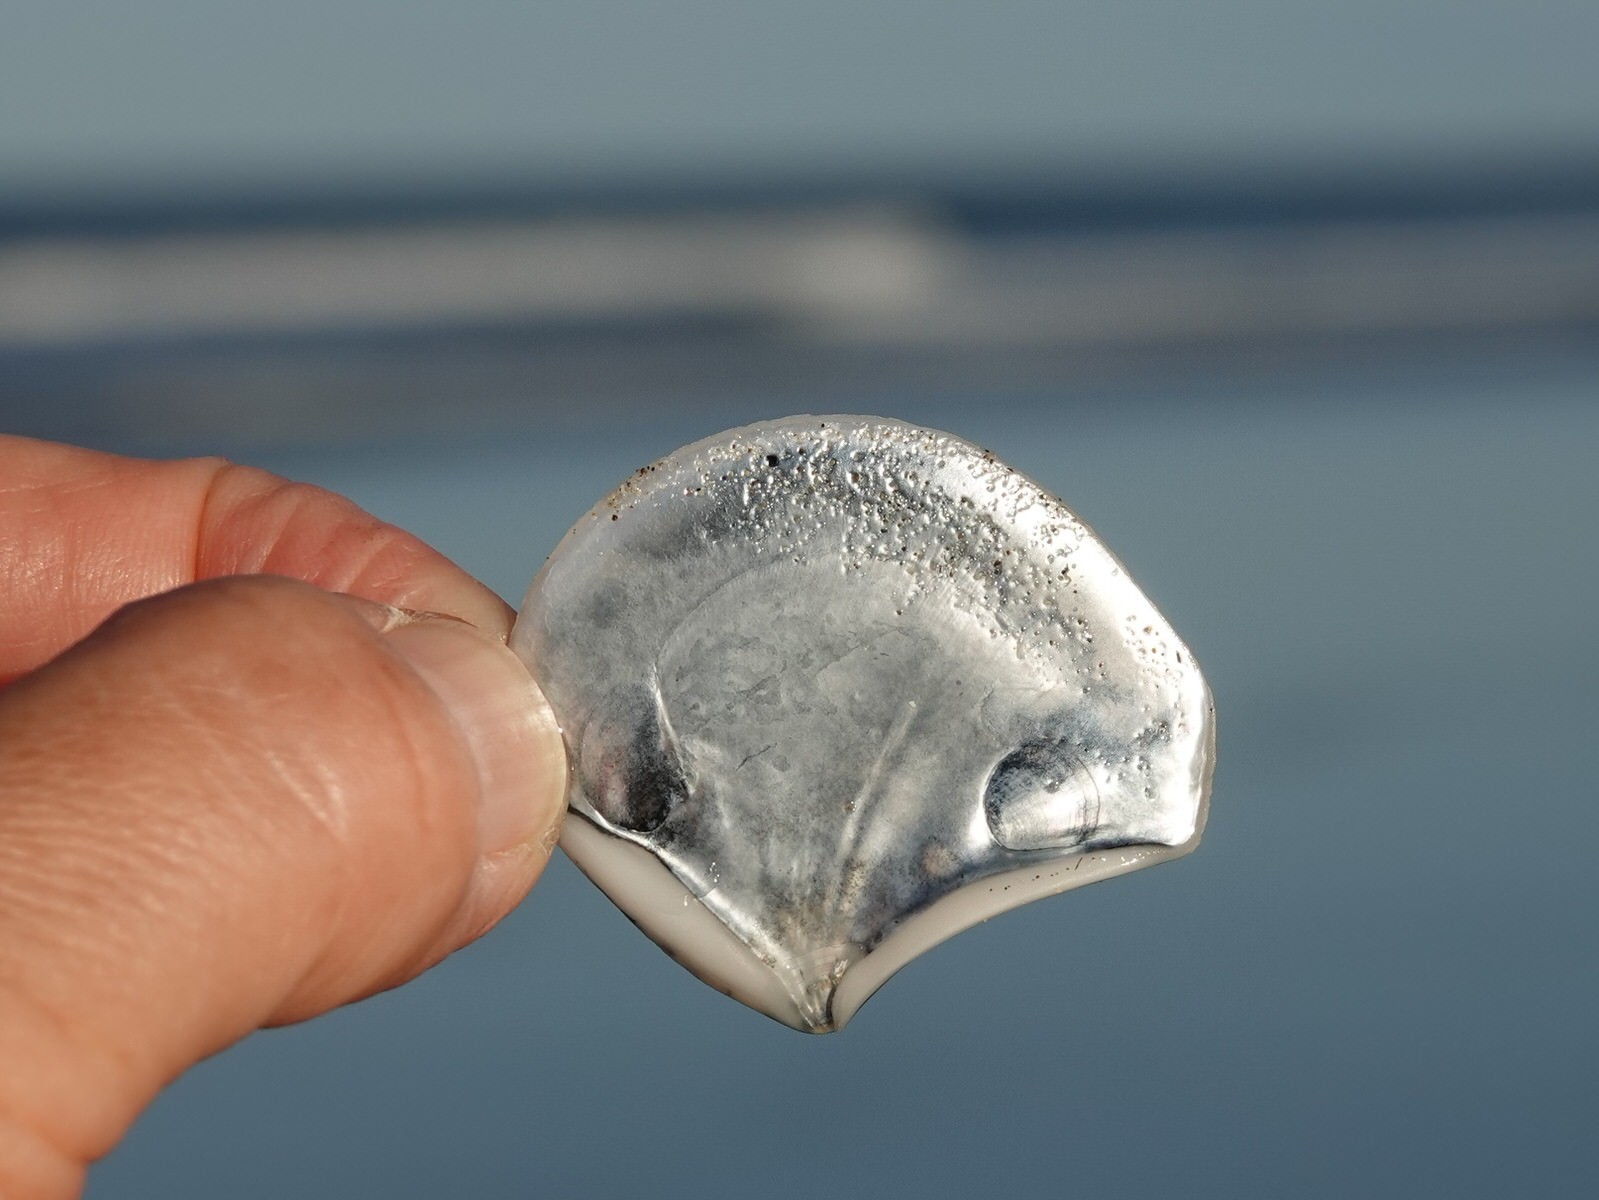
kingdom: Animalia
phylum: Mollusca
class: Bivalvia
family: Myochamidae
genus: Myadora
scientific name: Myadora striata
